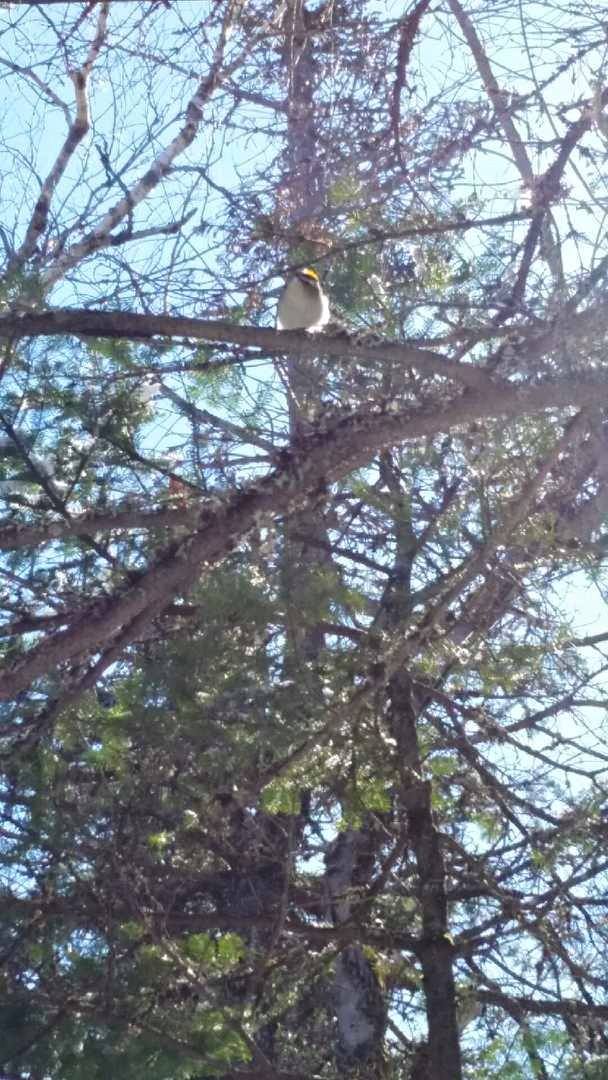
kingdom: Animalia
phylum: Chordata
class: Aves
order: Passeriformes
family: Regulidae
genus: Regulus
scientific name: Regulus satrapa
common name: Golden-crowned kinglet
